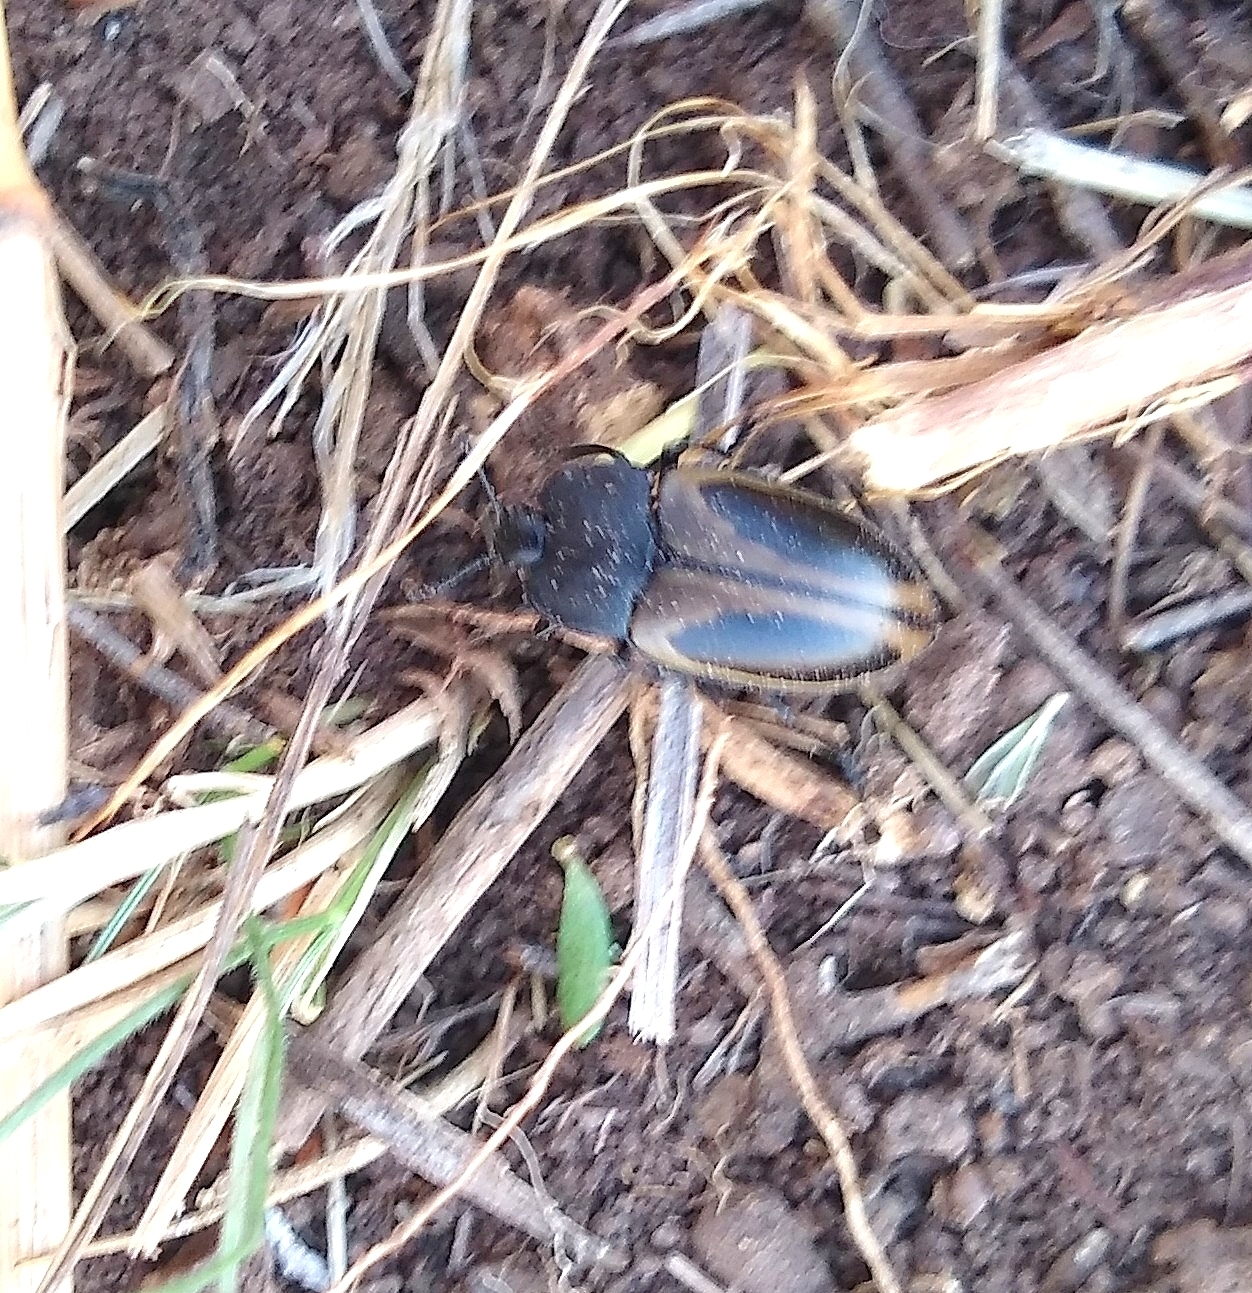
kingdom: Animalia
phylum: Arthropoda
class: Insecta
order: Coleoptera
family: Erotylidae
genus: Iphiclus
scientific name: Iphiclus
